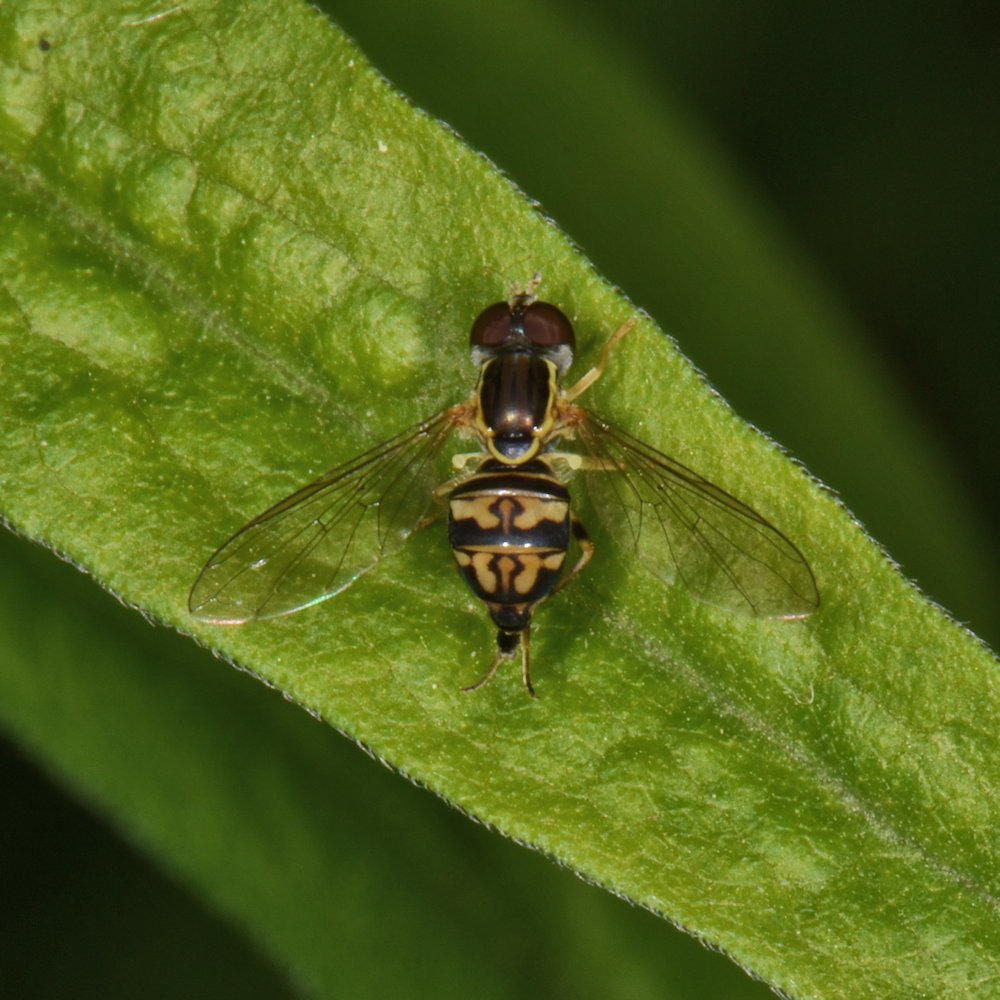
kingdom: Animalia
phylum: Arthropoda
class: Insecta
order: Diptera
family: Syrphidae
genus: Toxomerus
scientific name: Toxomerus geminatus
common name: Eastern calligrapher
